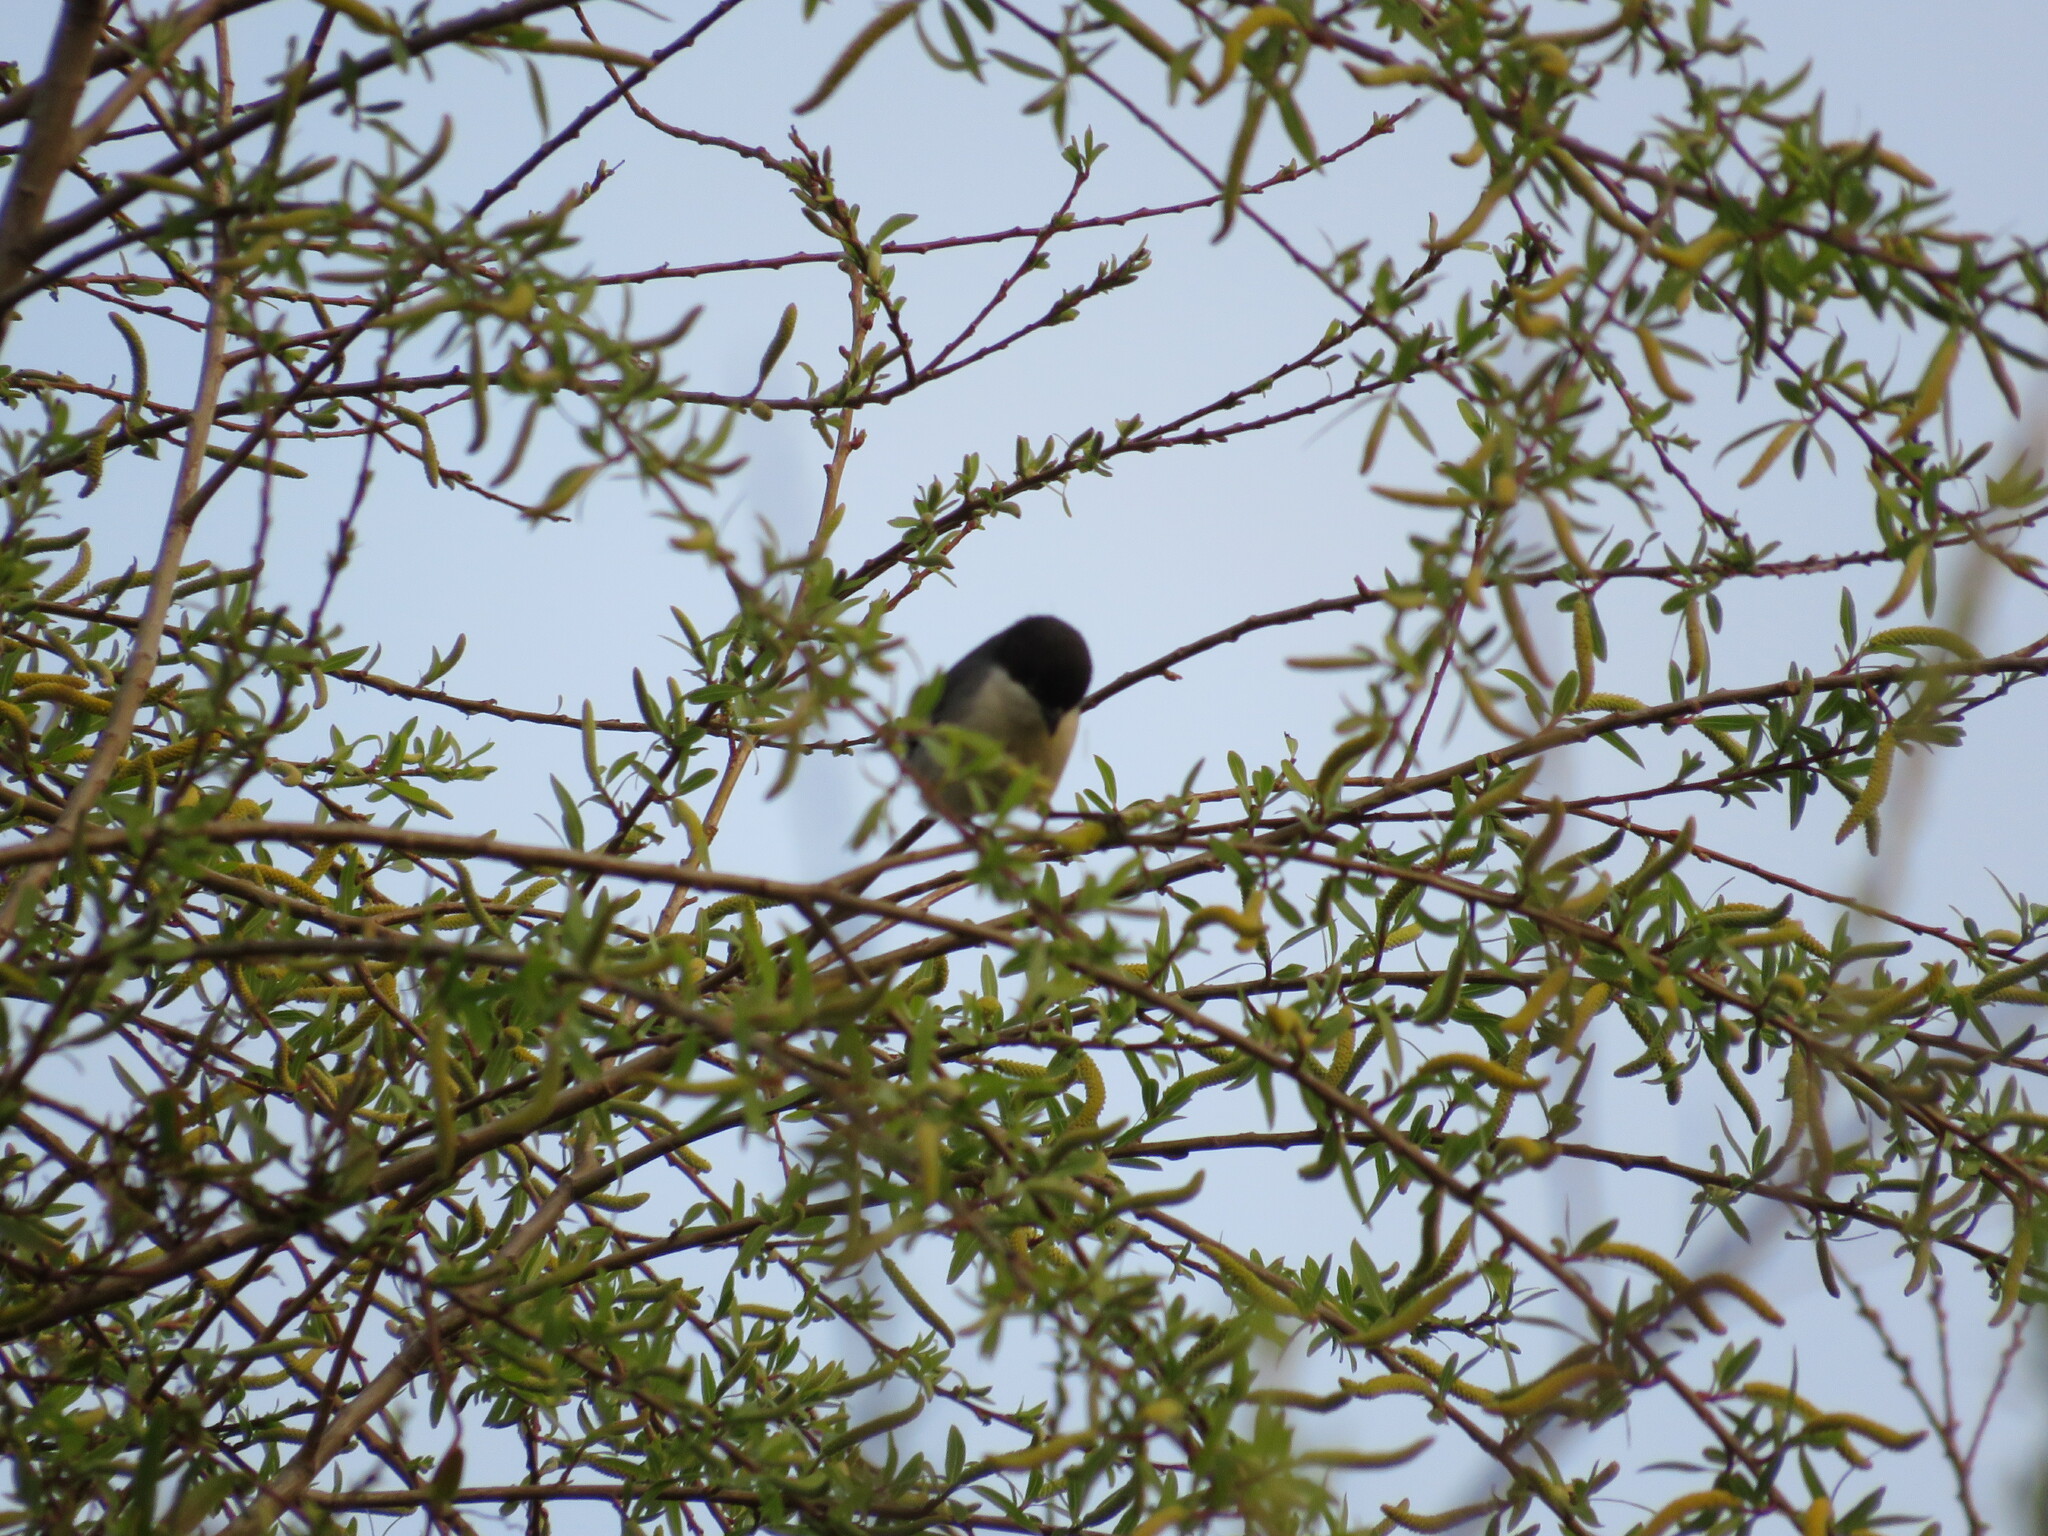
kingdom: Animalia
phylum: Chordata
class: Aves
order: Passeriformes
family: Thraupidae
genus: Microspingus
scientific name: Microspingus melanoleucus
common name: Black-capped warbling-finch
